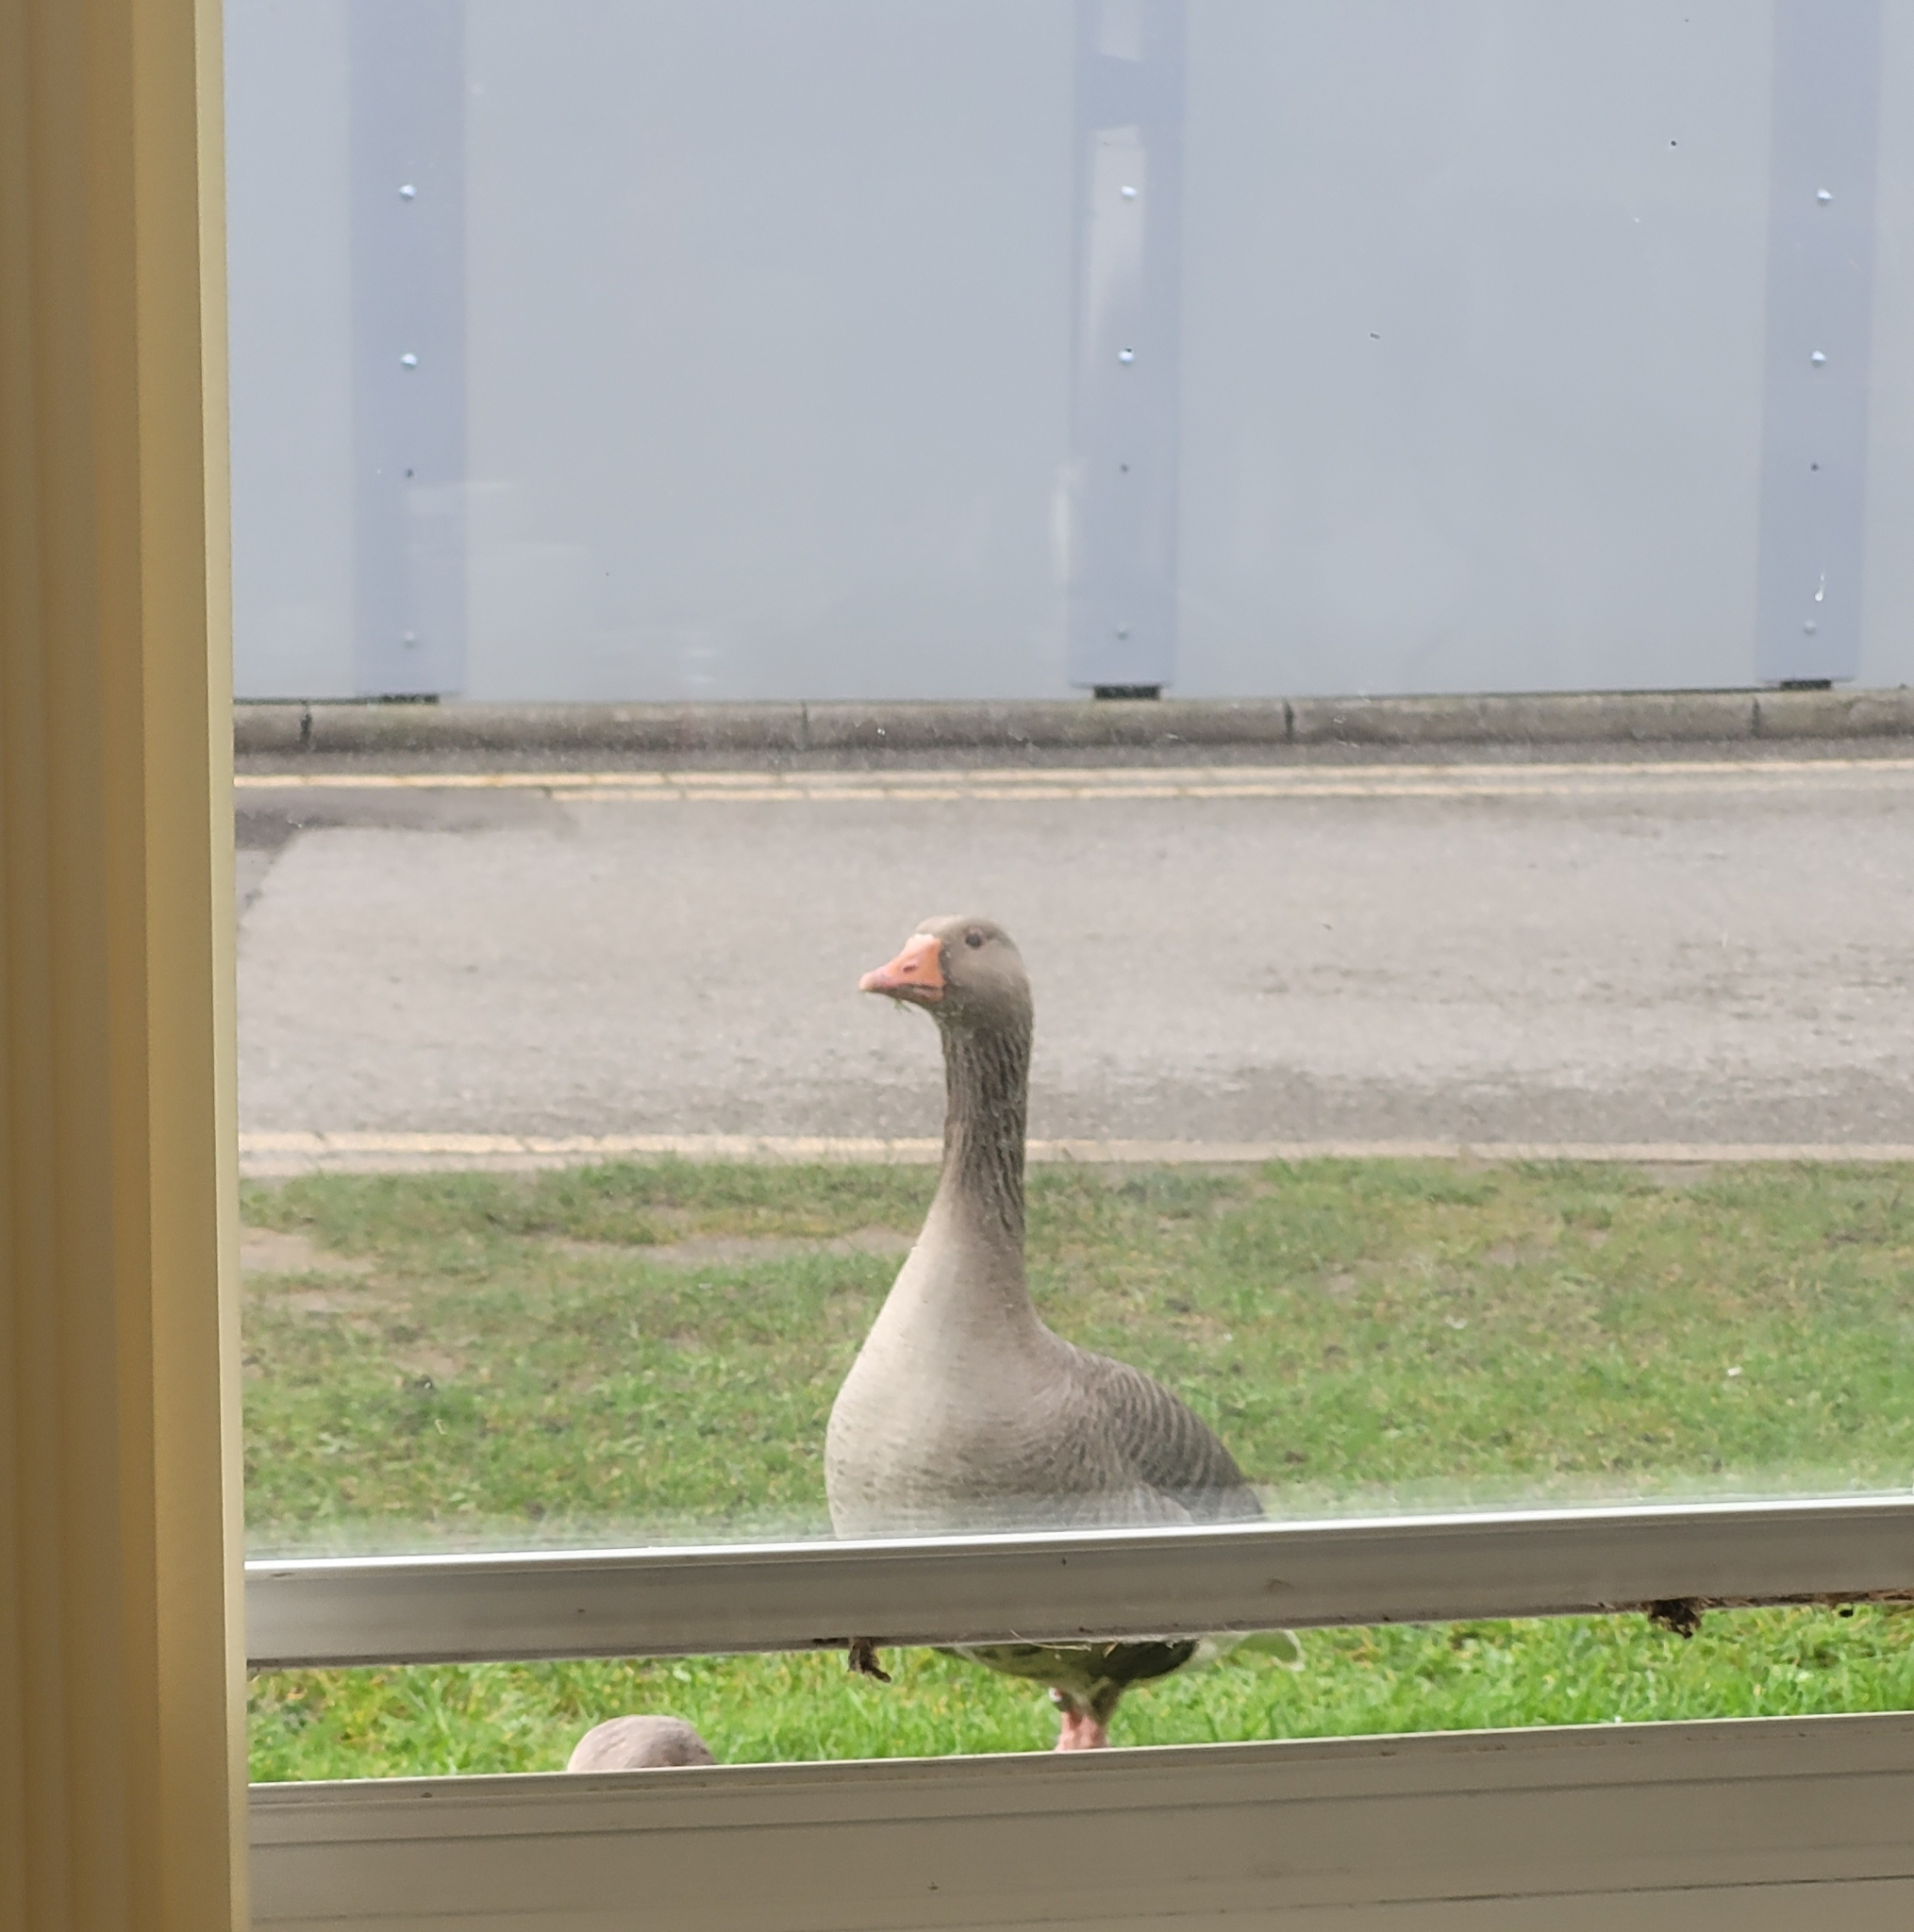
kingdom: Animalia
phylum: Chordata
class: Aves
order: Anseriformes
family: Anatidae
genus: Anser
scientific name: Anser anser
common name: Greylag goose
